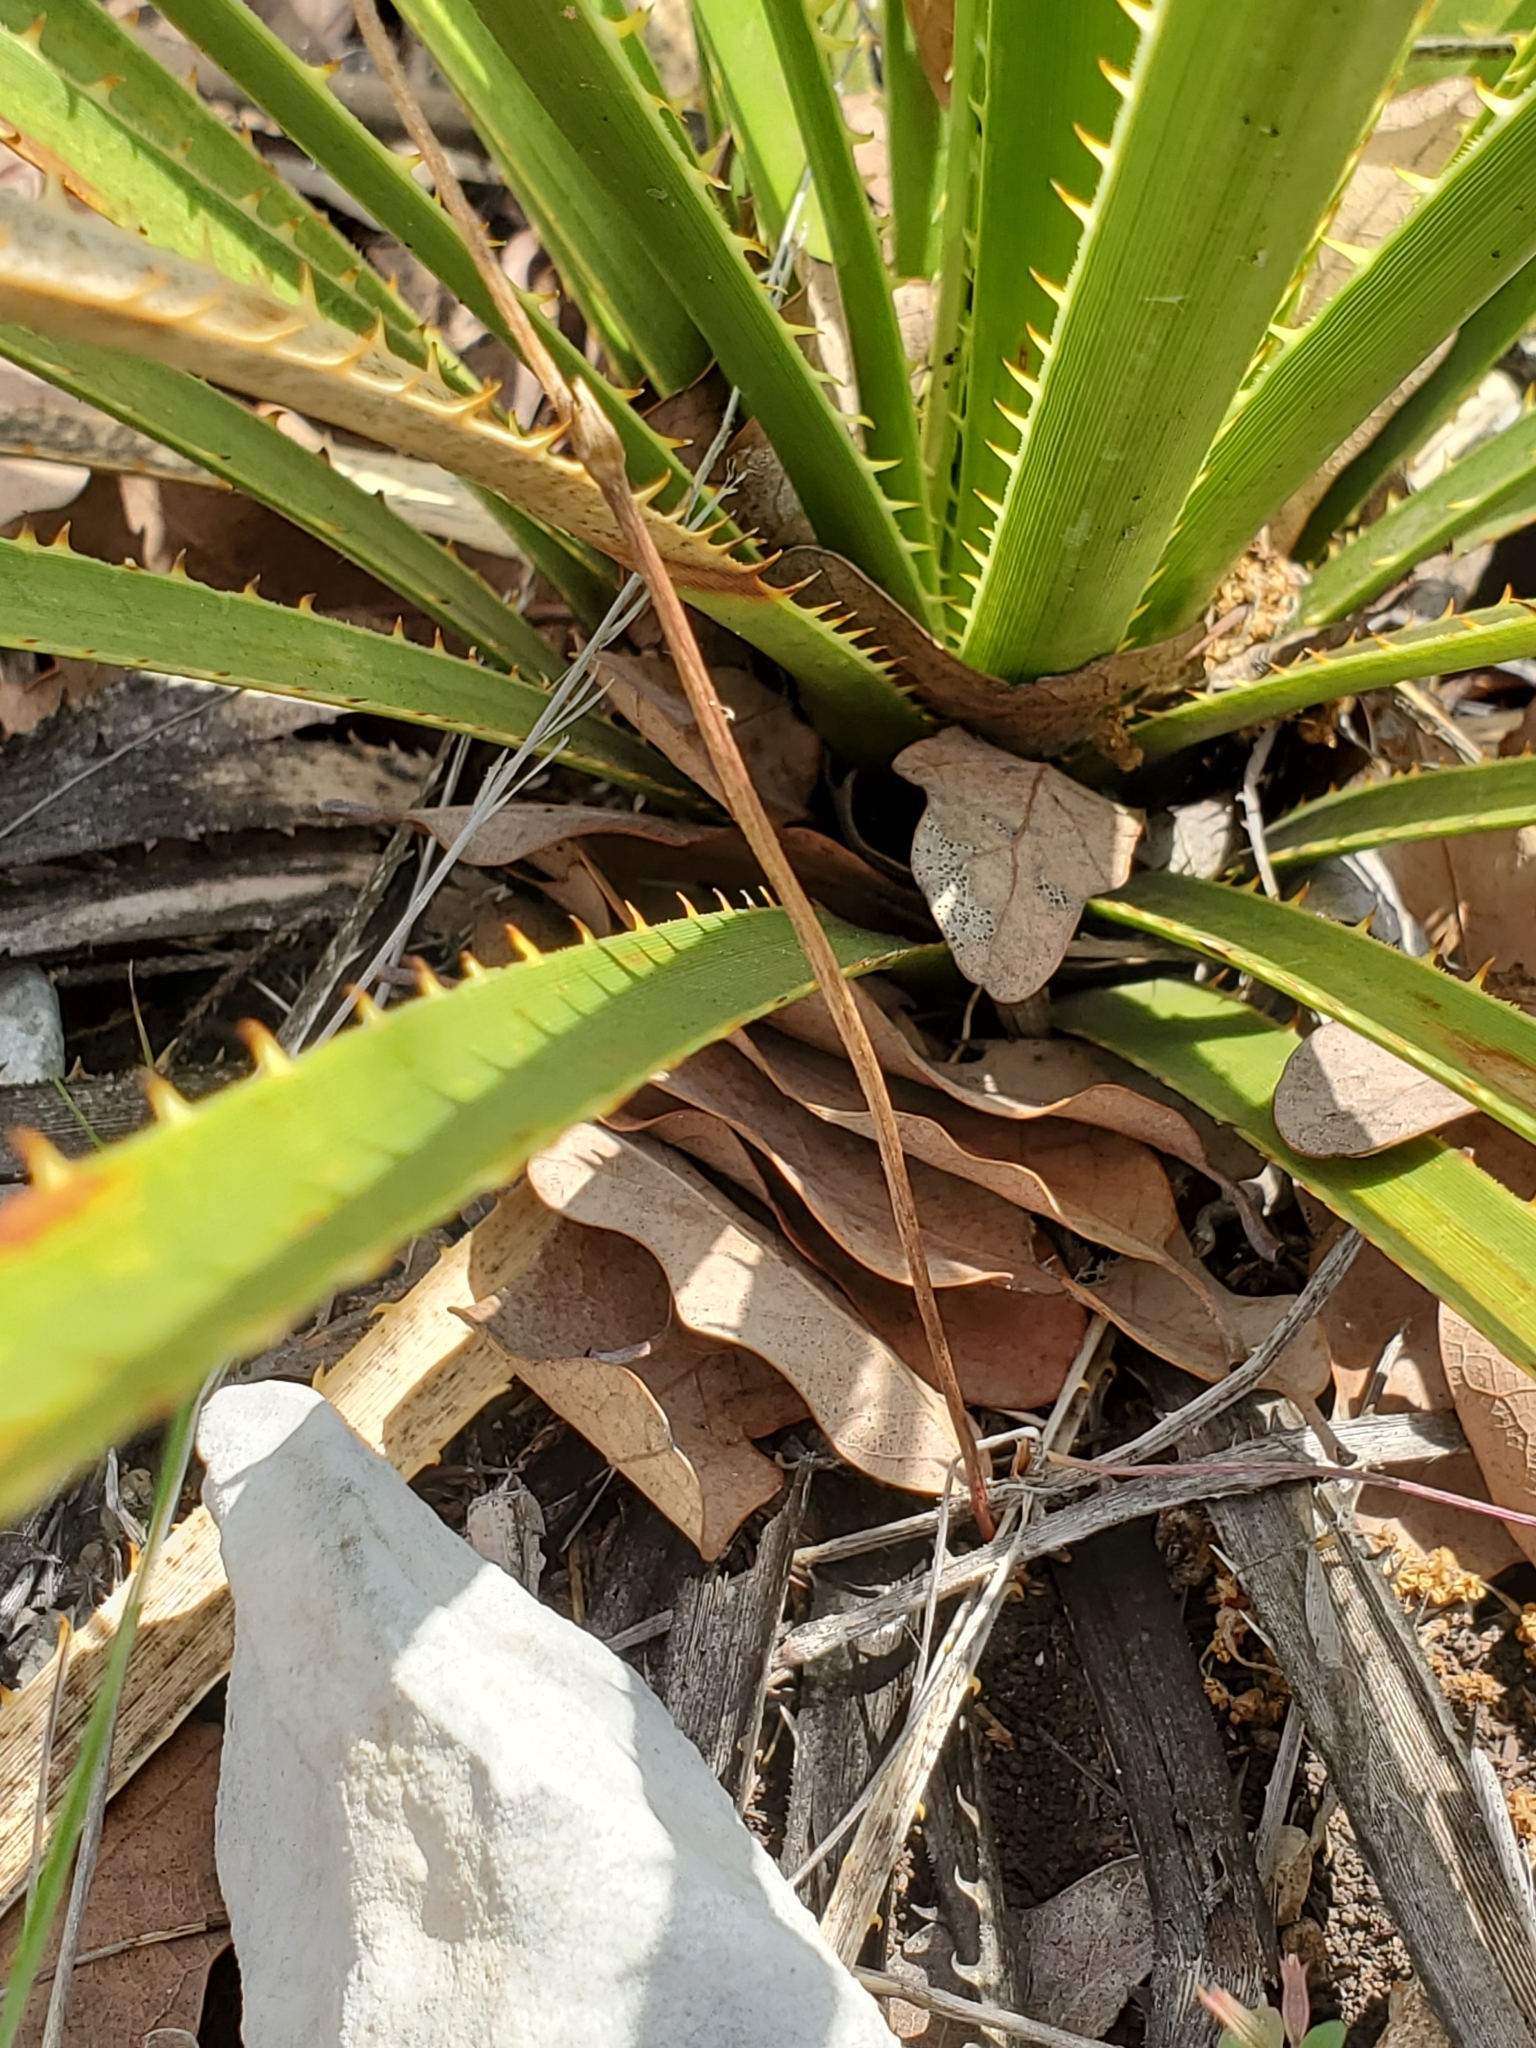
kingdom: Plantae
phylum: Tracheophyta
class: Magnoliopsida
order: Ranunculales
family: Ranunculaceae
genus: Anemone
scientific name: Anemone edwardsiana
